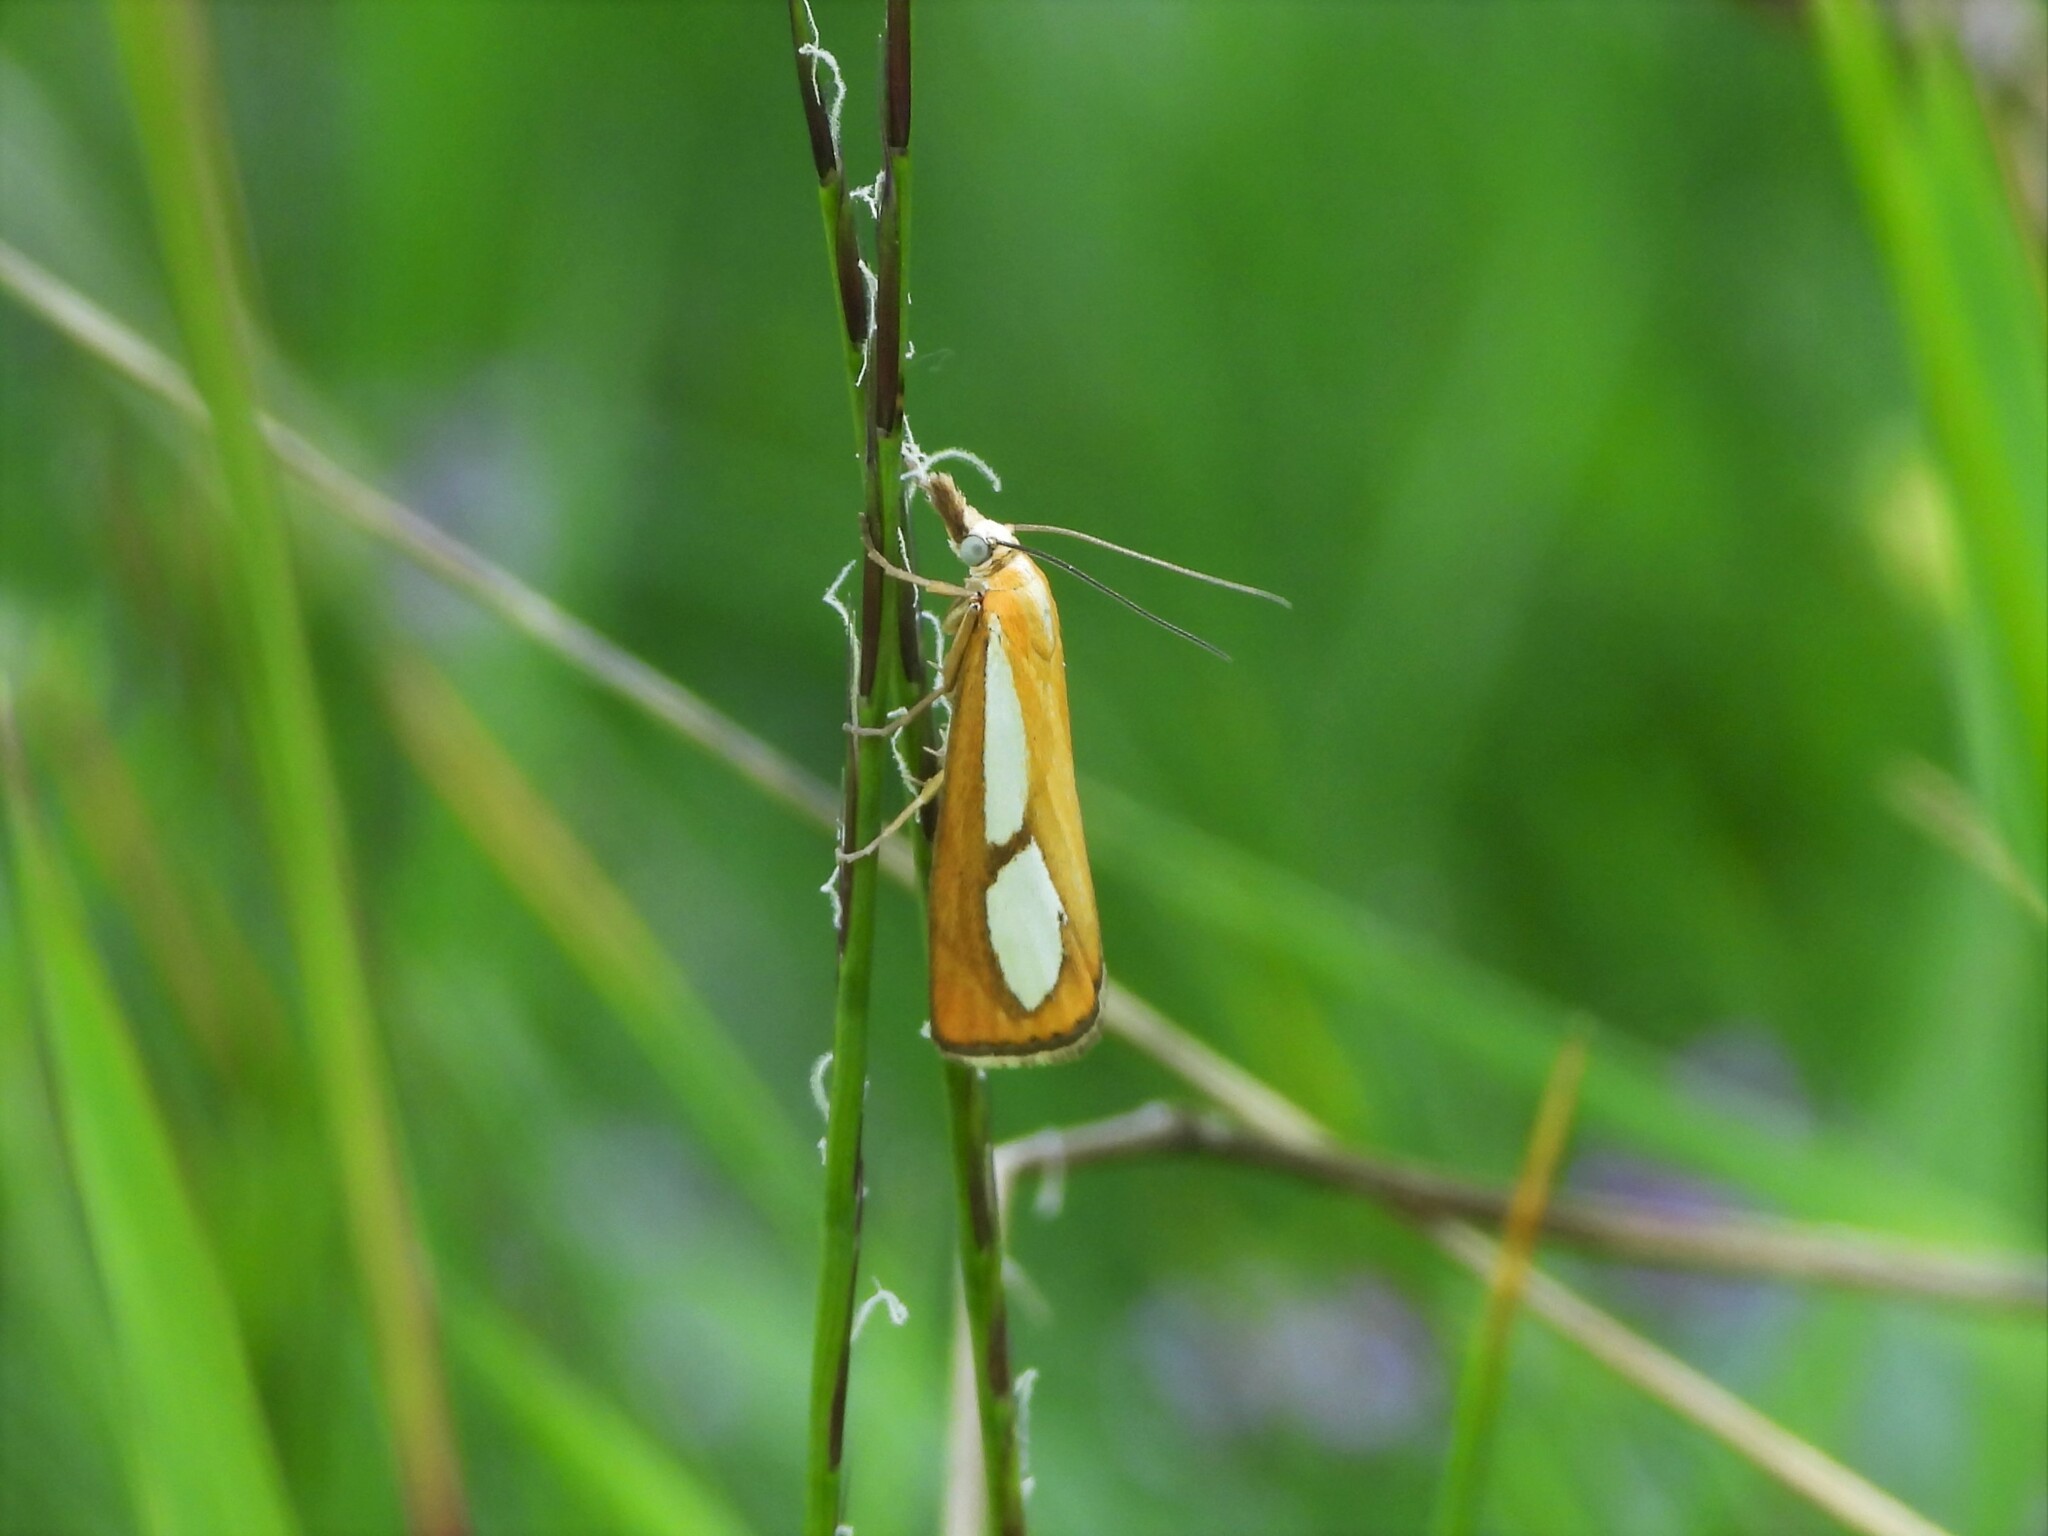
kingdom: Animalia
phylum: Arthropoda
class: Insecta
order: Lepidoptera
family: Crambidae
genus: Catoptria
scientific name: Catoptria conchella
